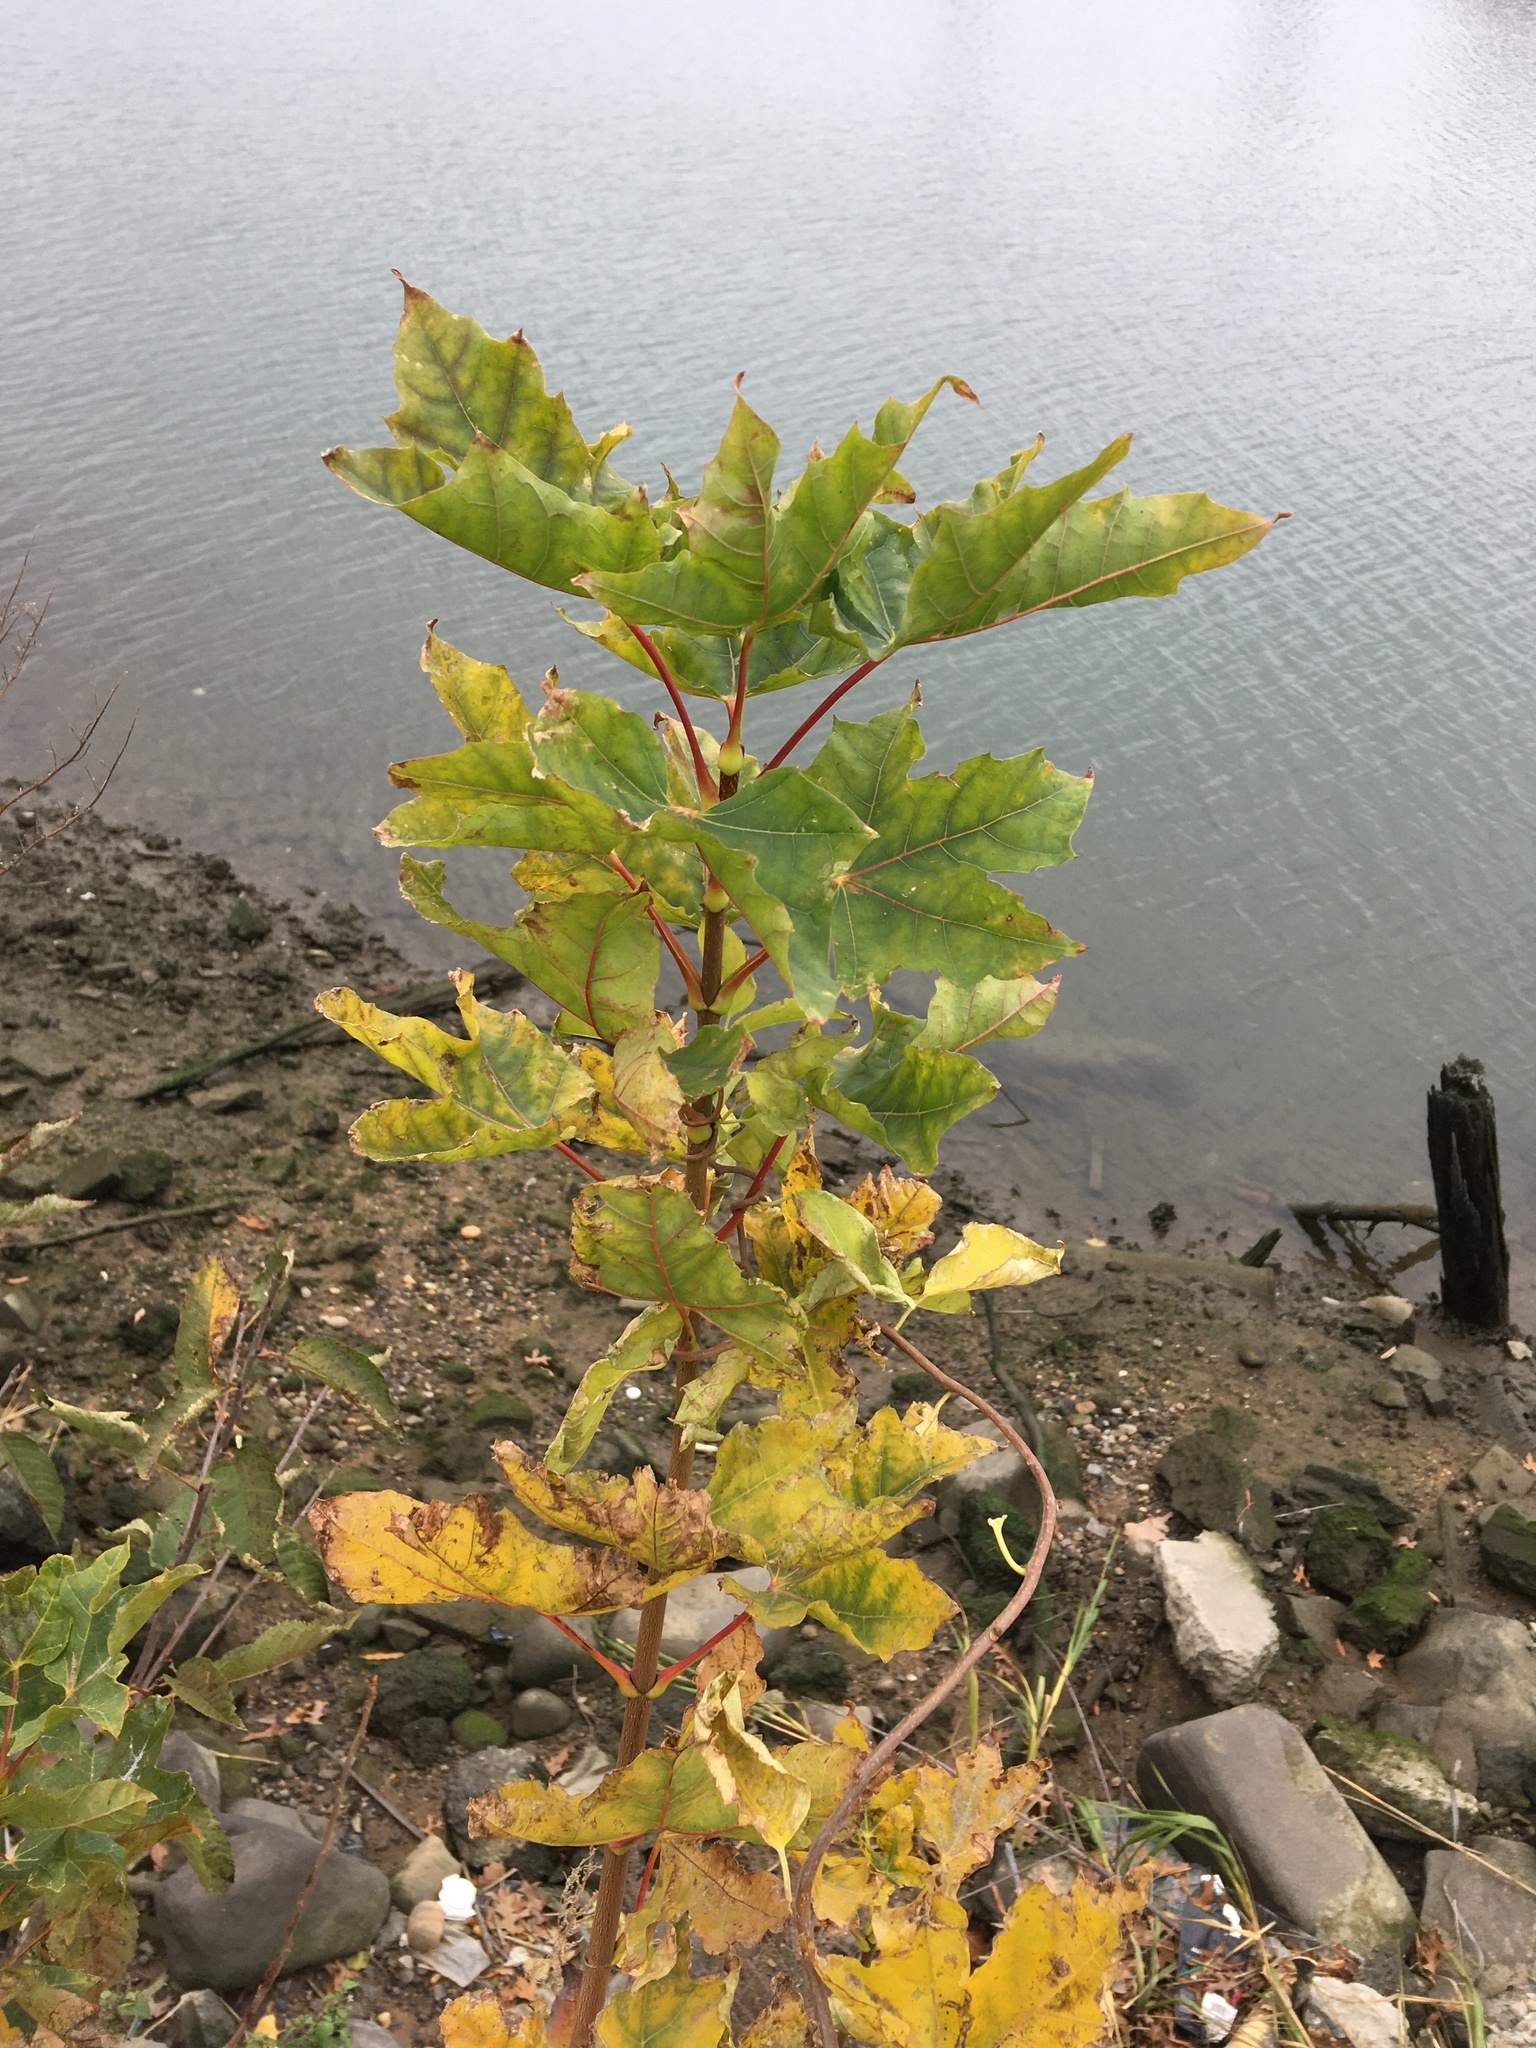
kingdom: Plantae
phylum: Tracheophyta
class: Magnoliopsida
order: Sapindales
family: Sapindaceae
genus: Acer
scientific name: Acer pseudoplatanus
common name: Sycamore
